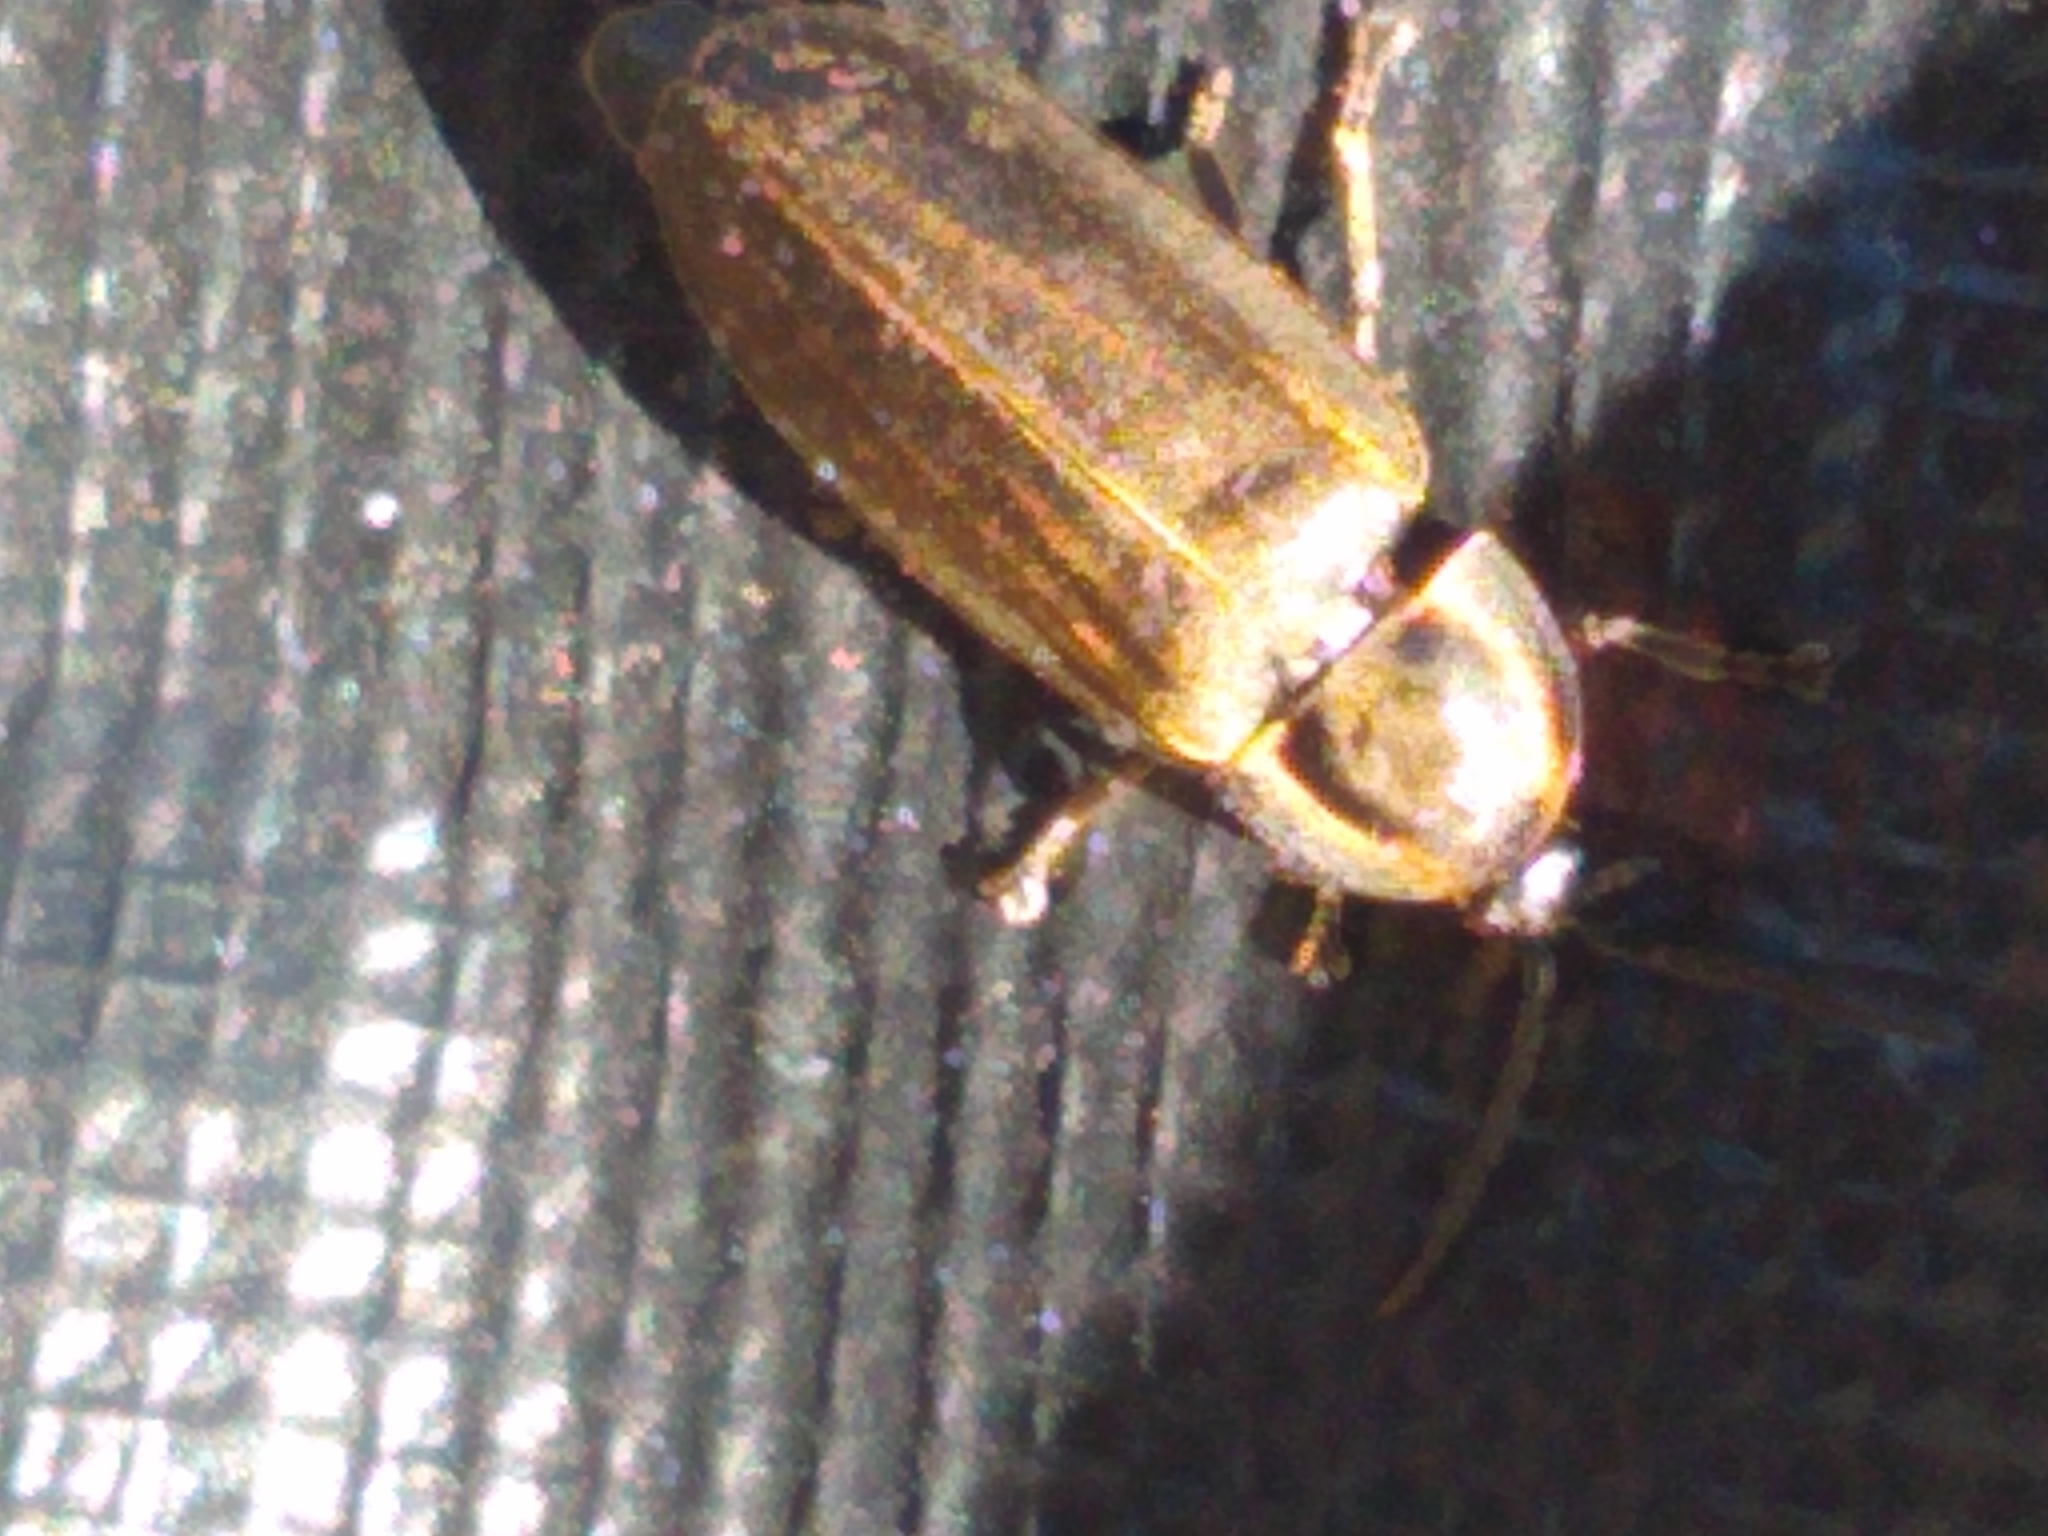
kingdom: Animalia
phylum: Arthropoda
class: Insecta
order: Coleoptera
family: Lampyridae
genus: Photinus
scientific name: Photinus corrusca
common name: Winter firefly
